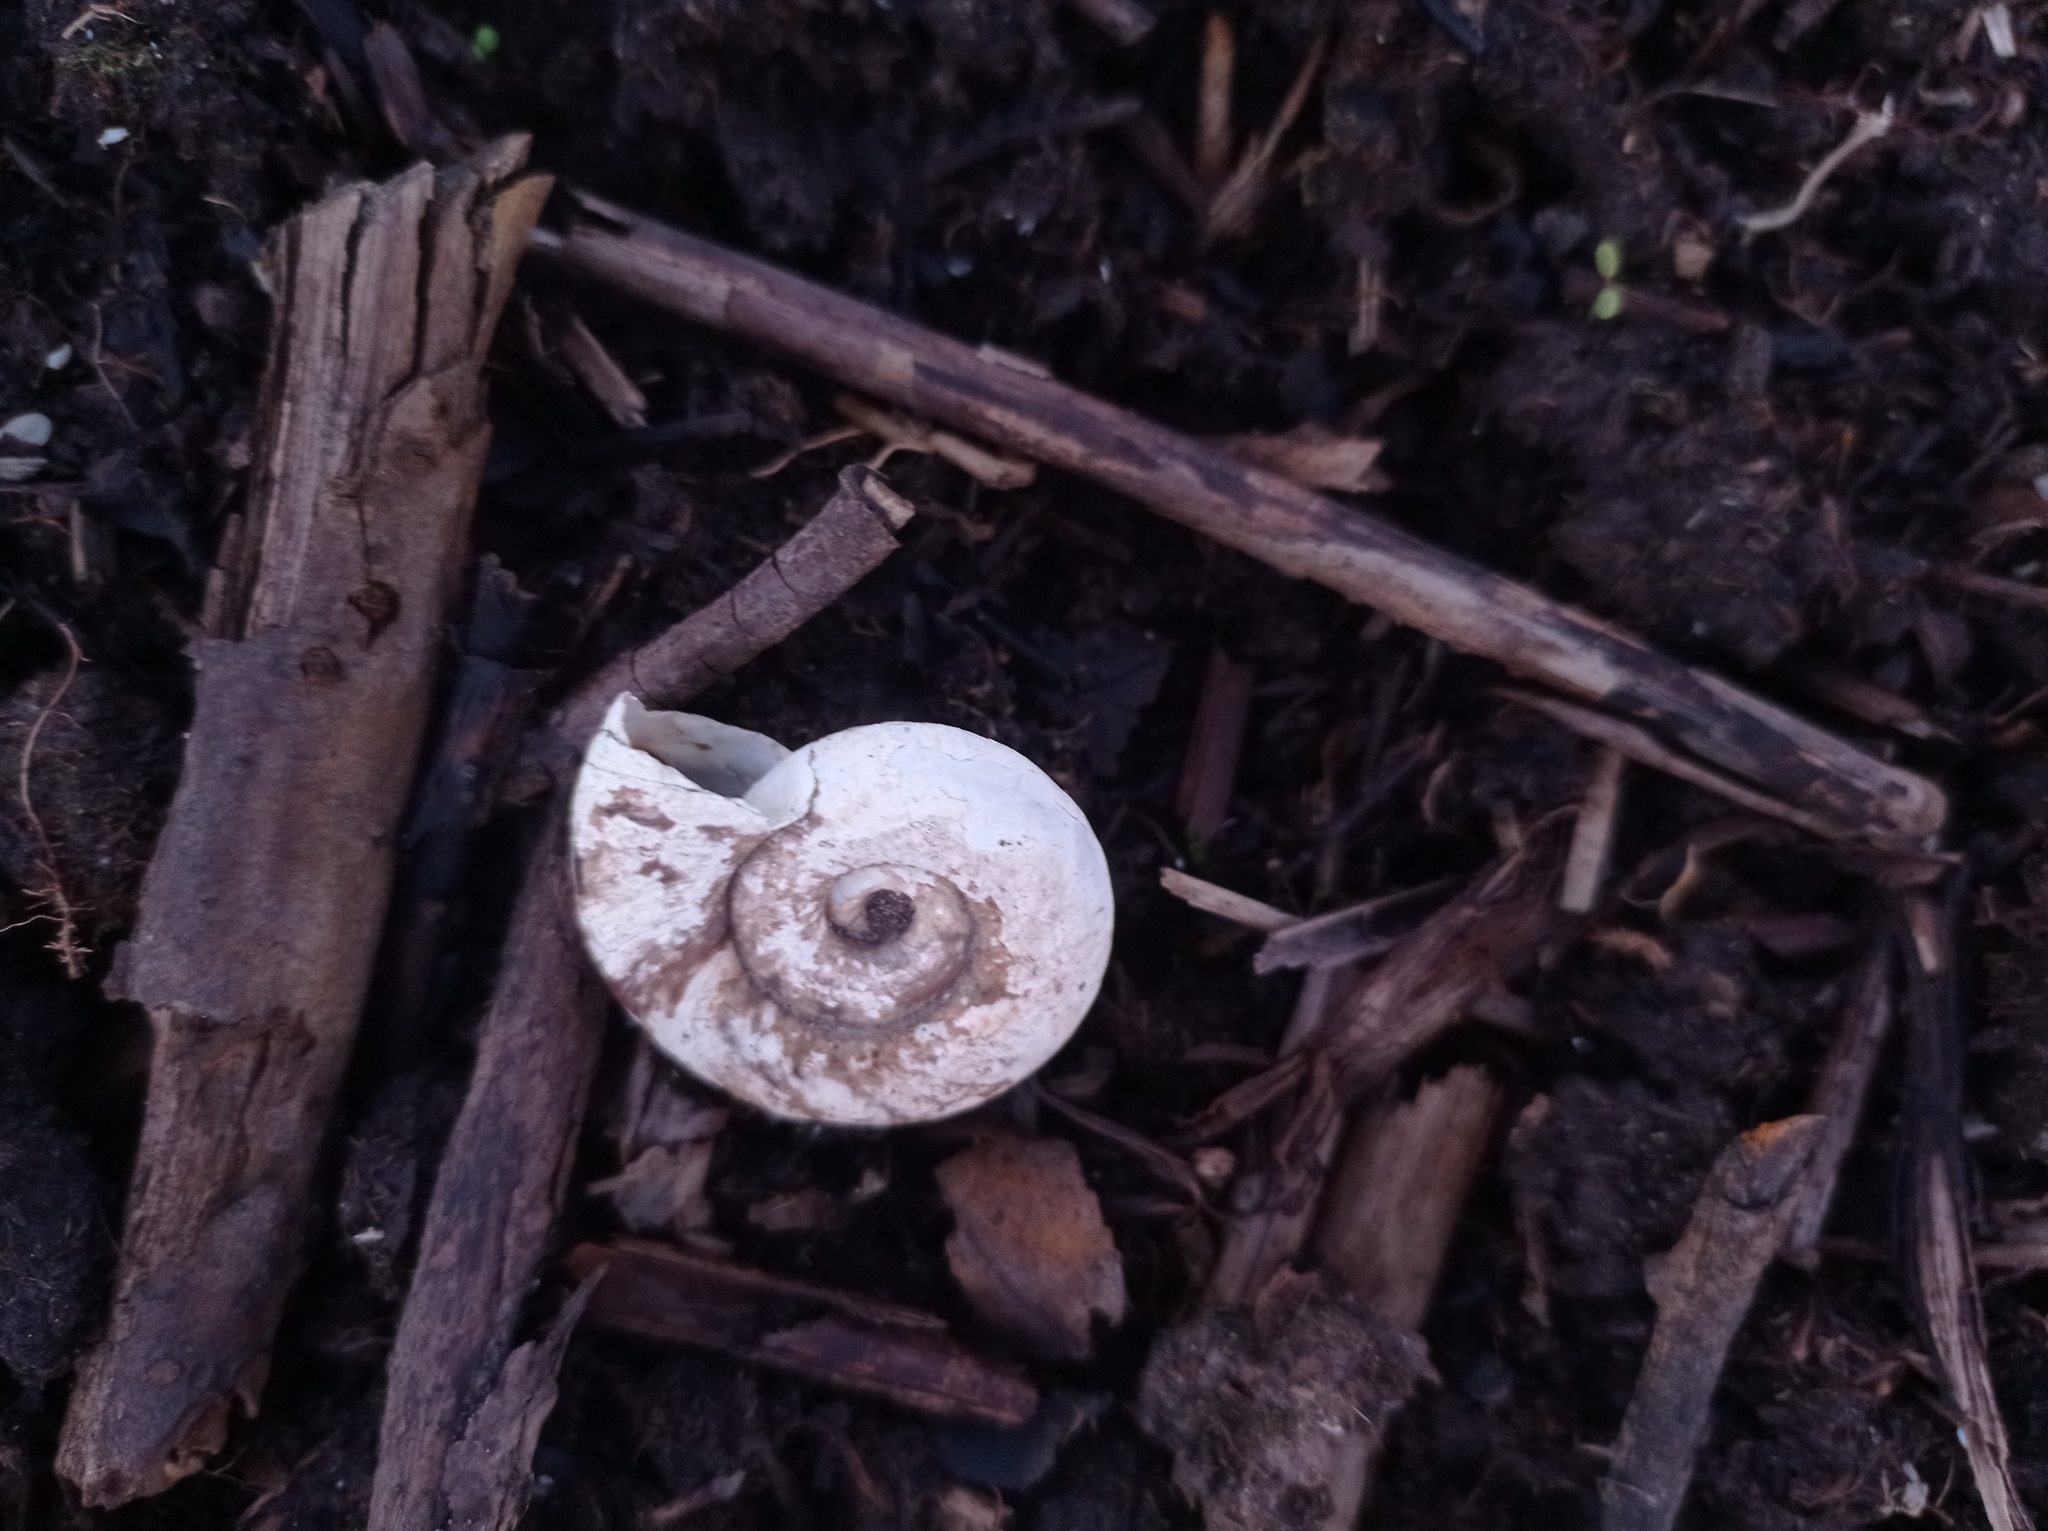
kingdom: Animalia
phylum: Mollusca
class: Gastropoda
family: Planorbidae
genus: Planorbarius
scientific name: Planorbarius corneus
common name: Great ramshorn
